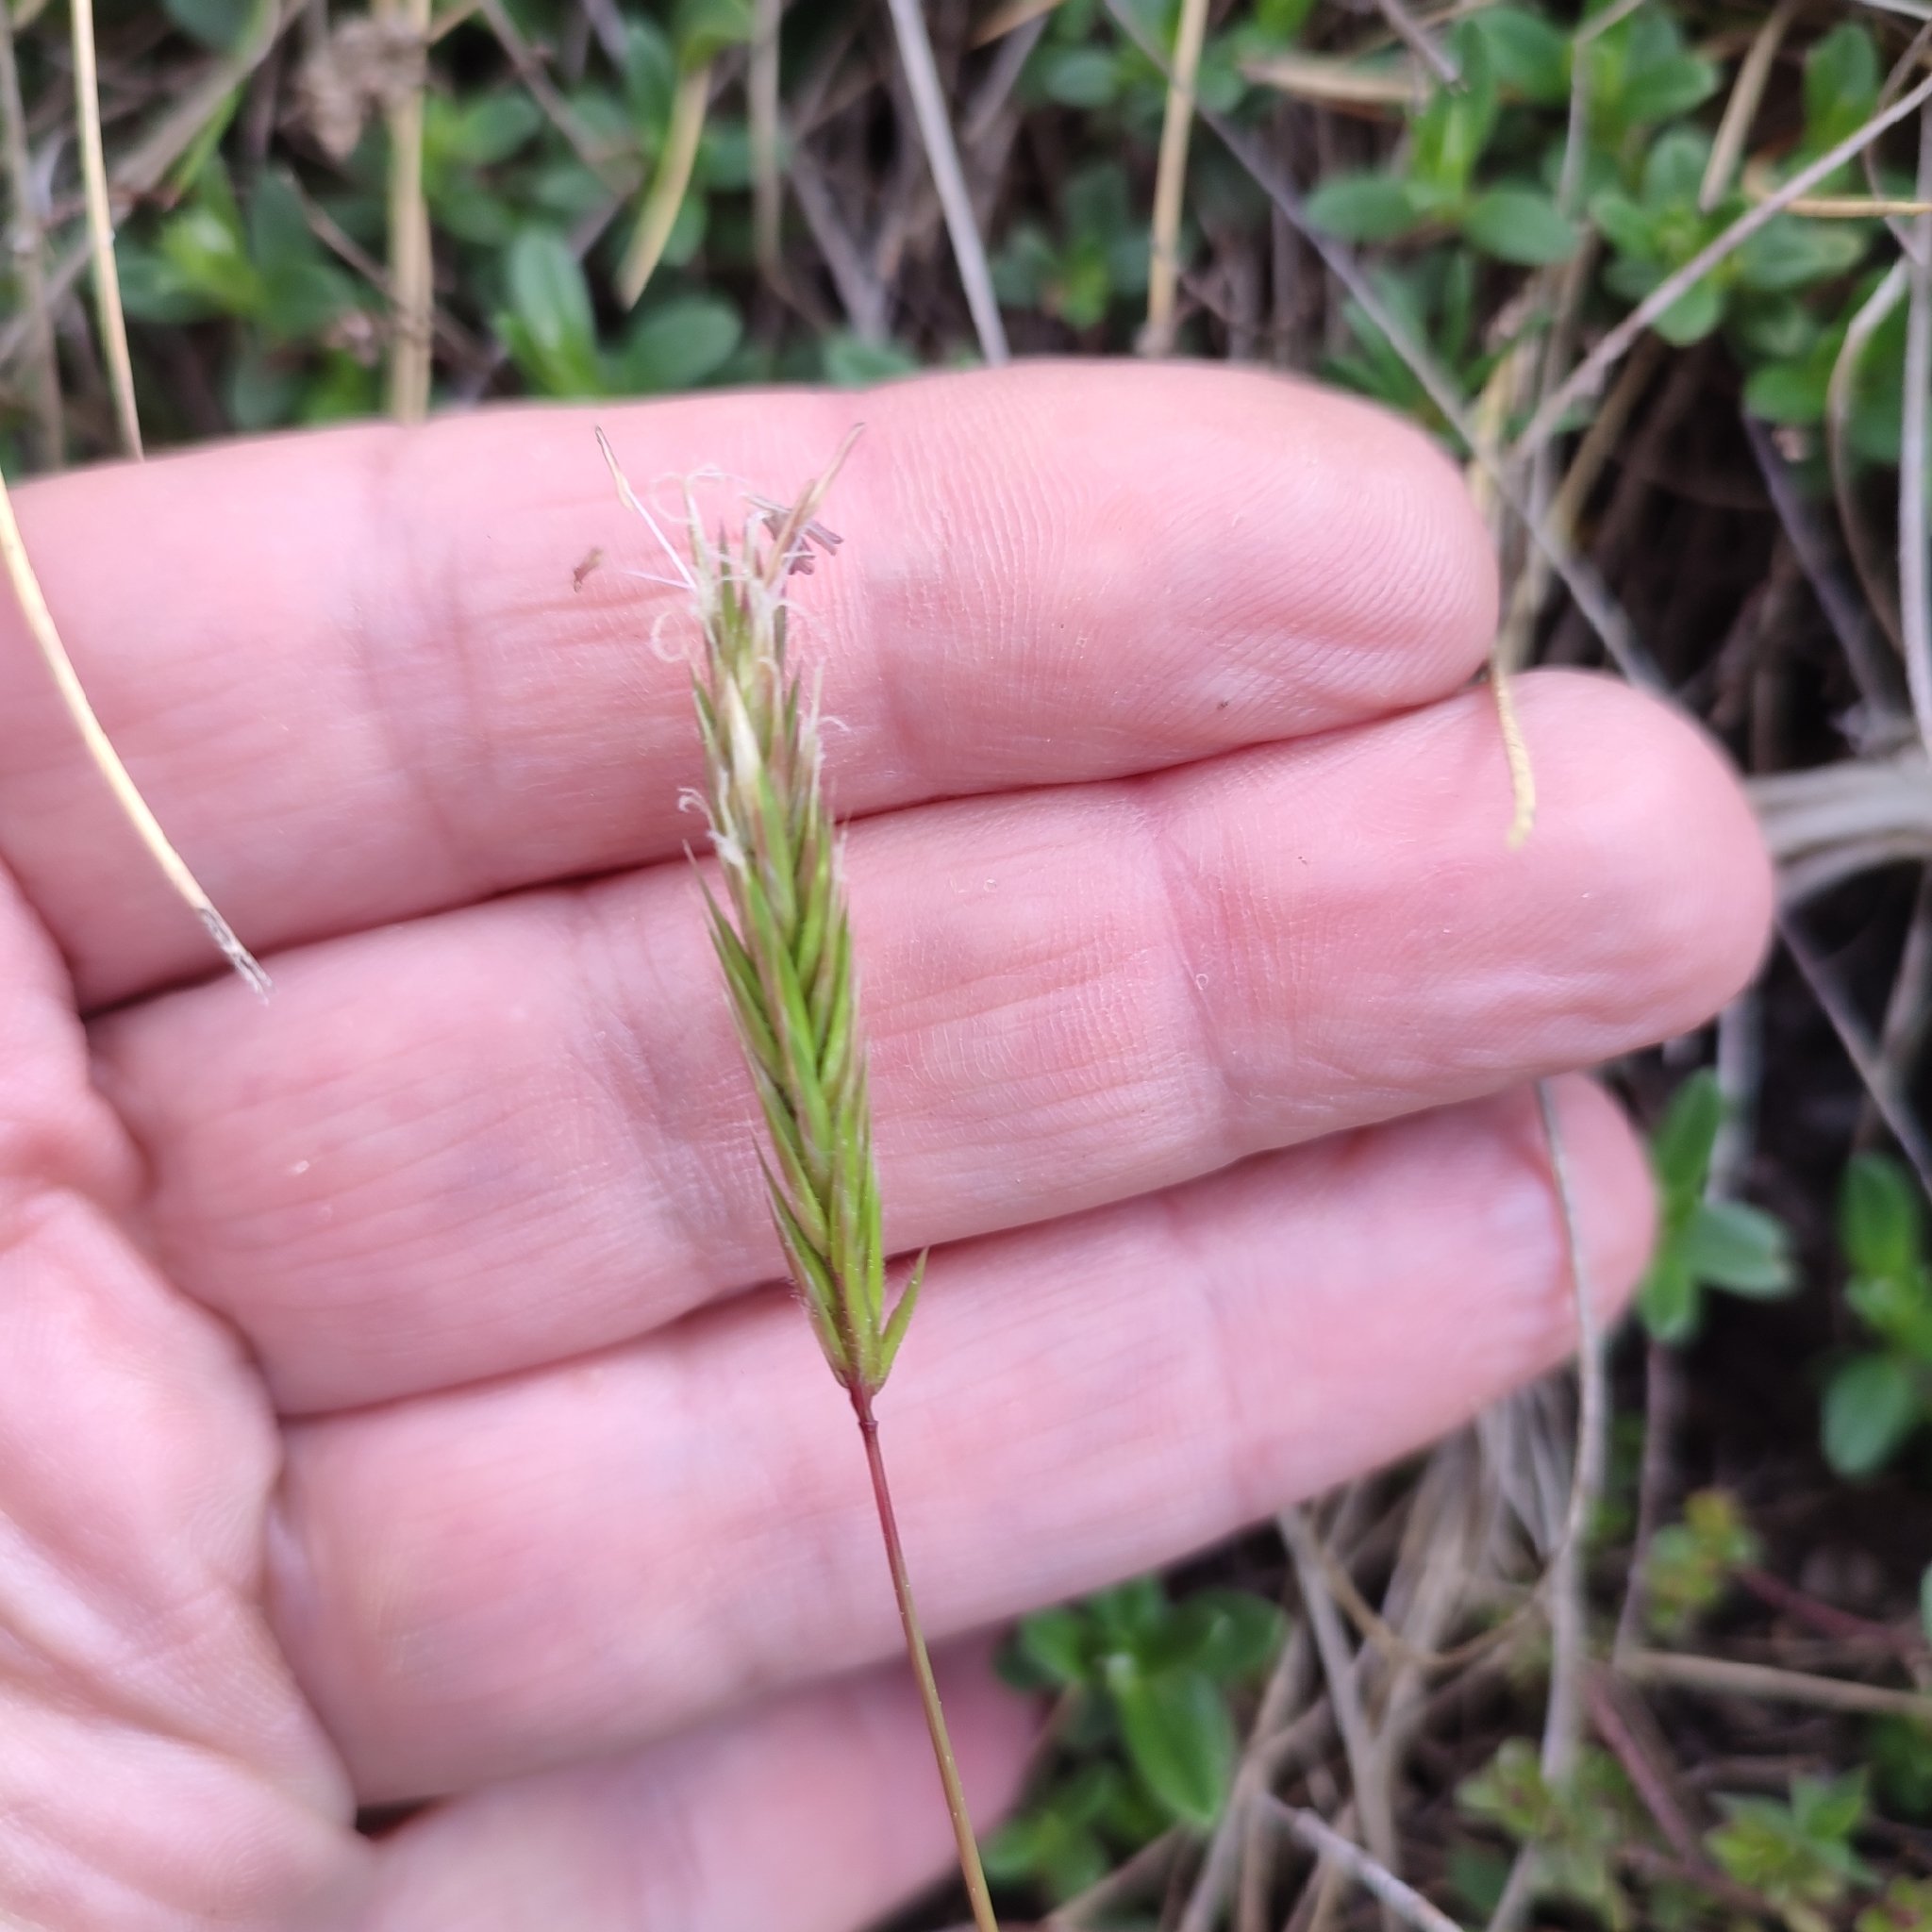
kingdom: Plantae
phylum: Tracheophyta
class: Liliopsida
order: Poales
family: Poaceae
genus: Anthoxanthum
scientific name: Anthoxanthum odoratum
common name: Sweet vernalgrass
